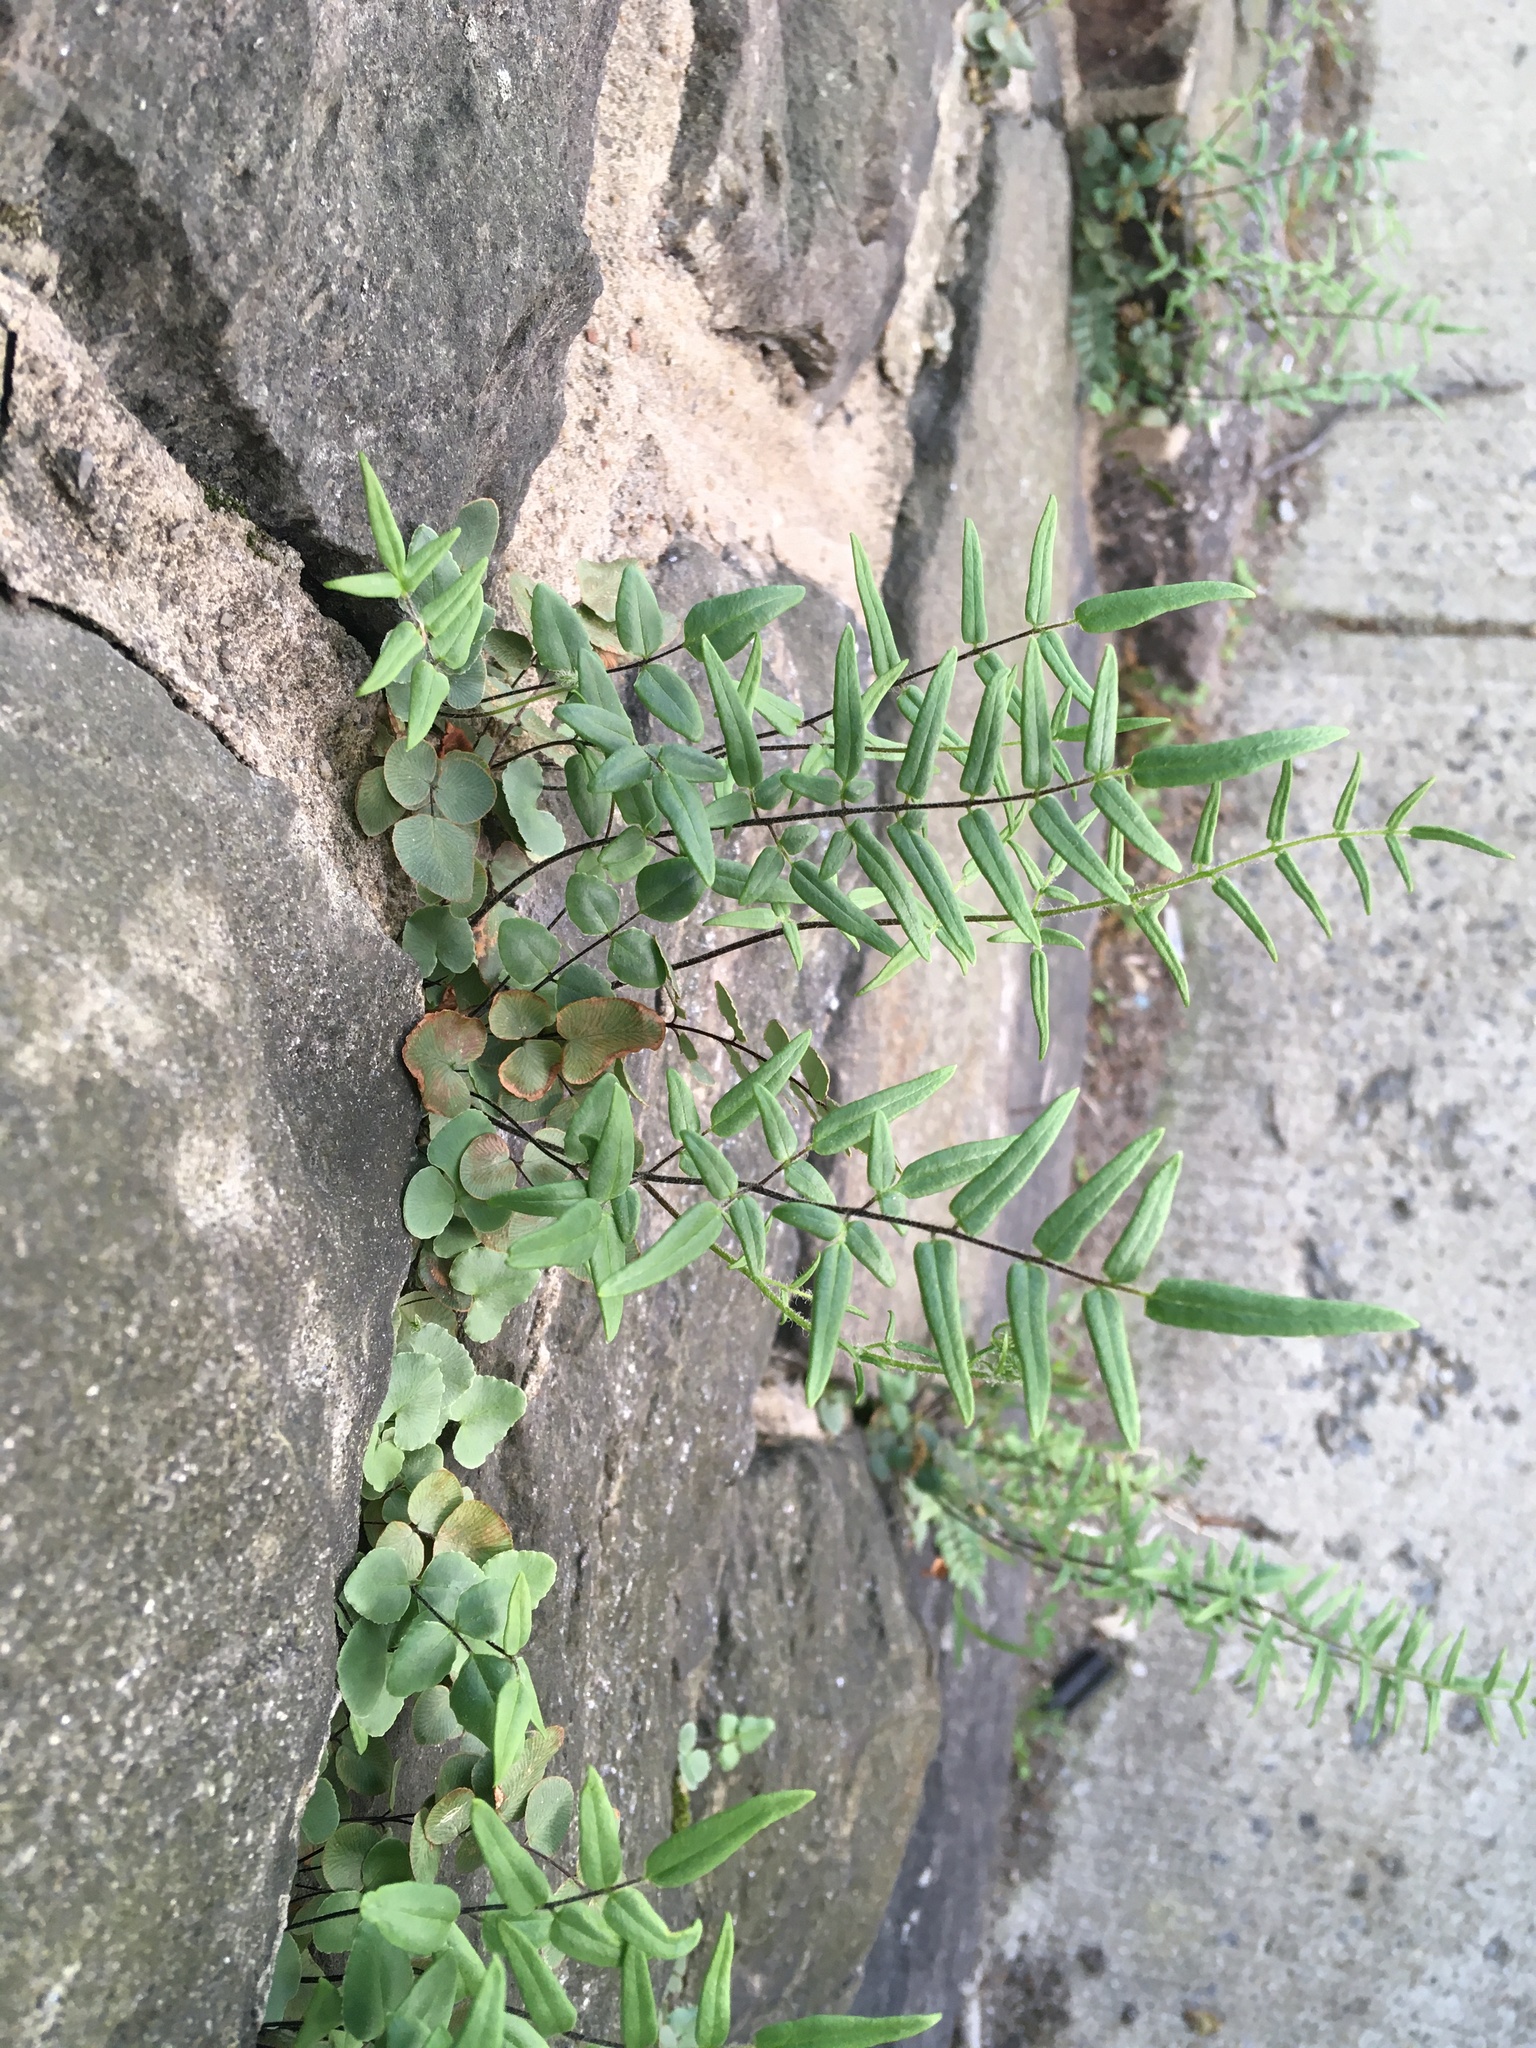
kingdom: Plantae
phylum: Tracheophyta
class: Polypodiopsida
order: Polypodiales
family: Pteridaceae
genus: Pellaea
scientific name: Pellaea atropurpurea
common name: Hairy cliffbrake
